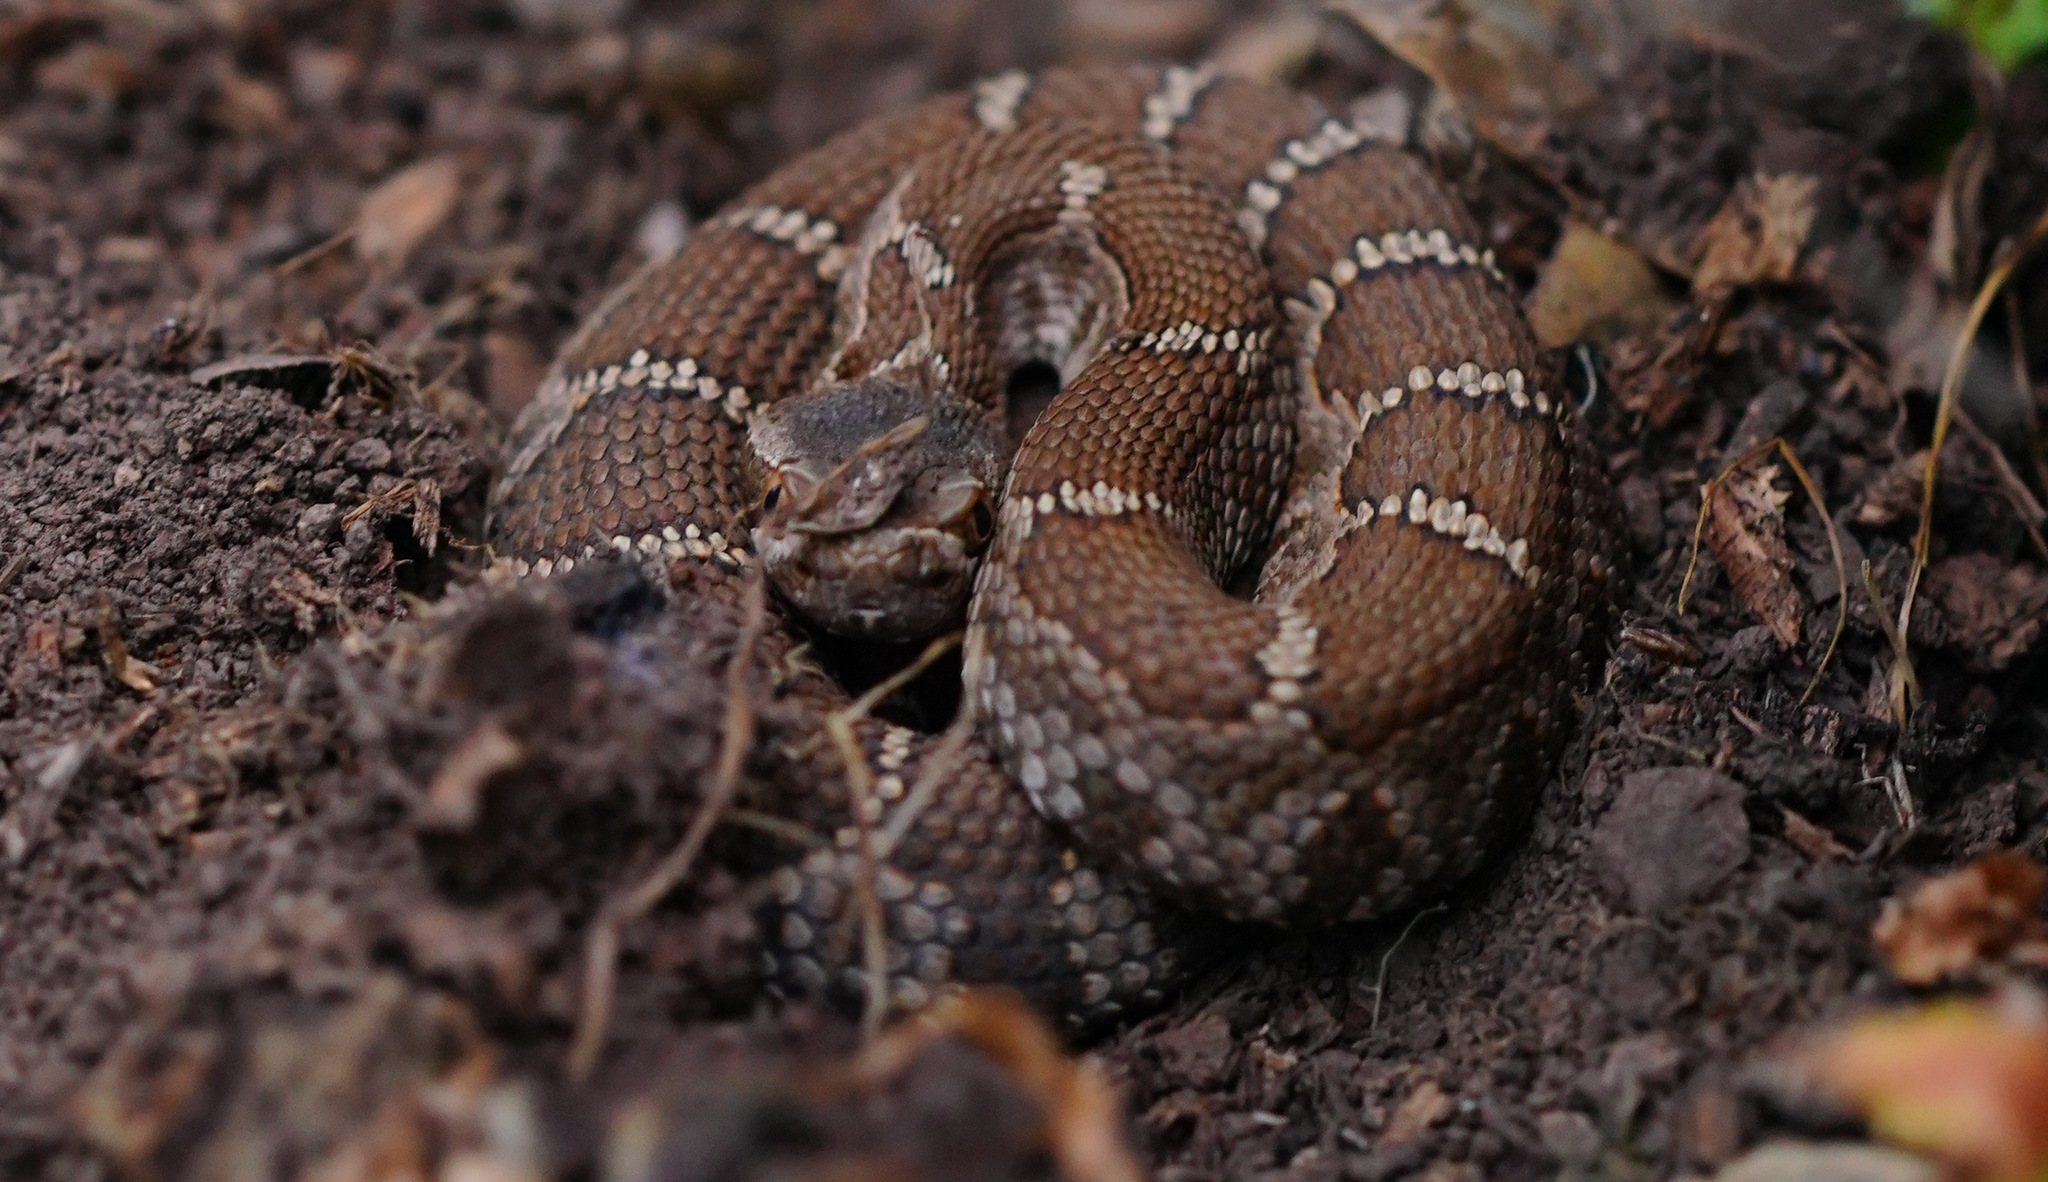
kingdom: Animalia
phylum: Chordata
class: Squamata
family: Viperidae
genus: Crotalus
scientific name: Crotalus oreganus
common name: Abyssus
